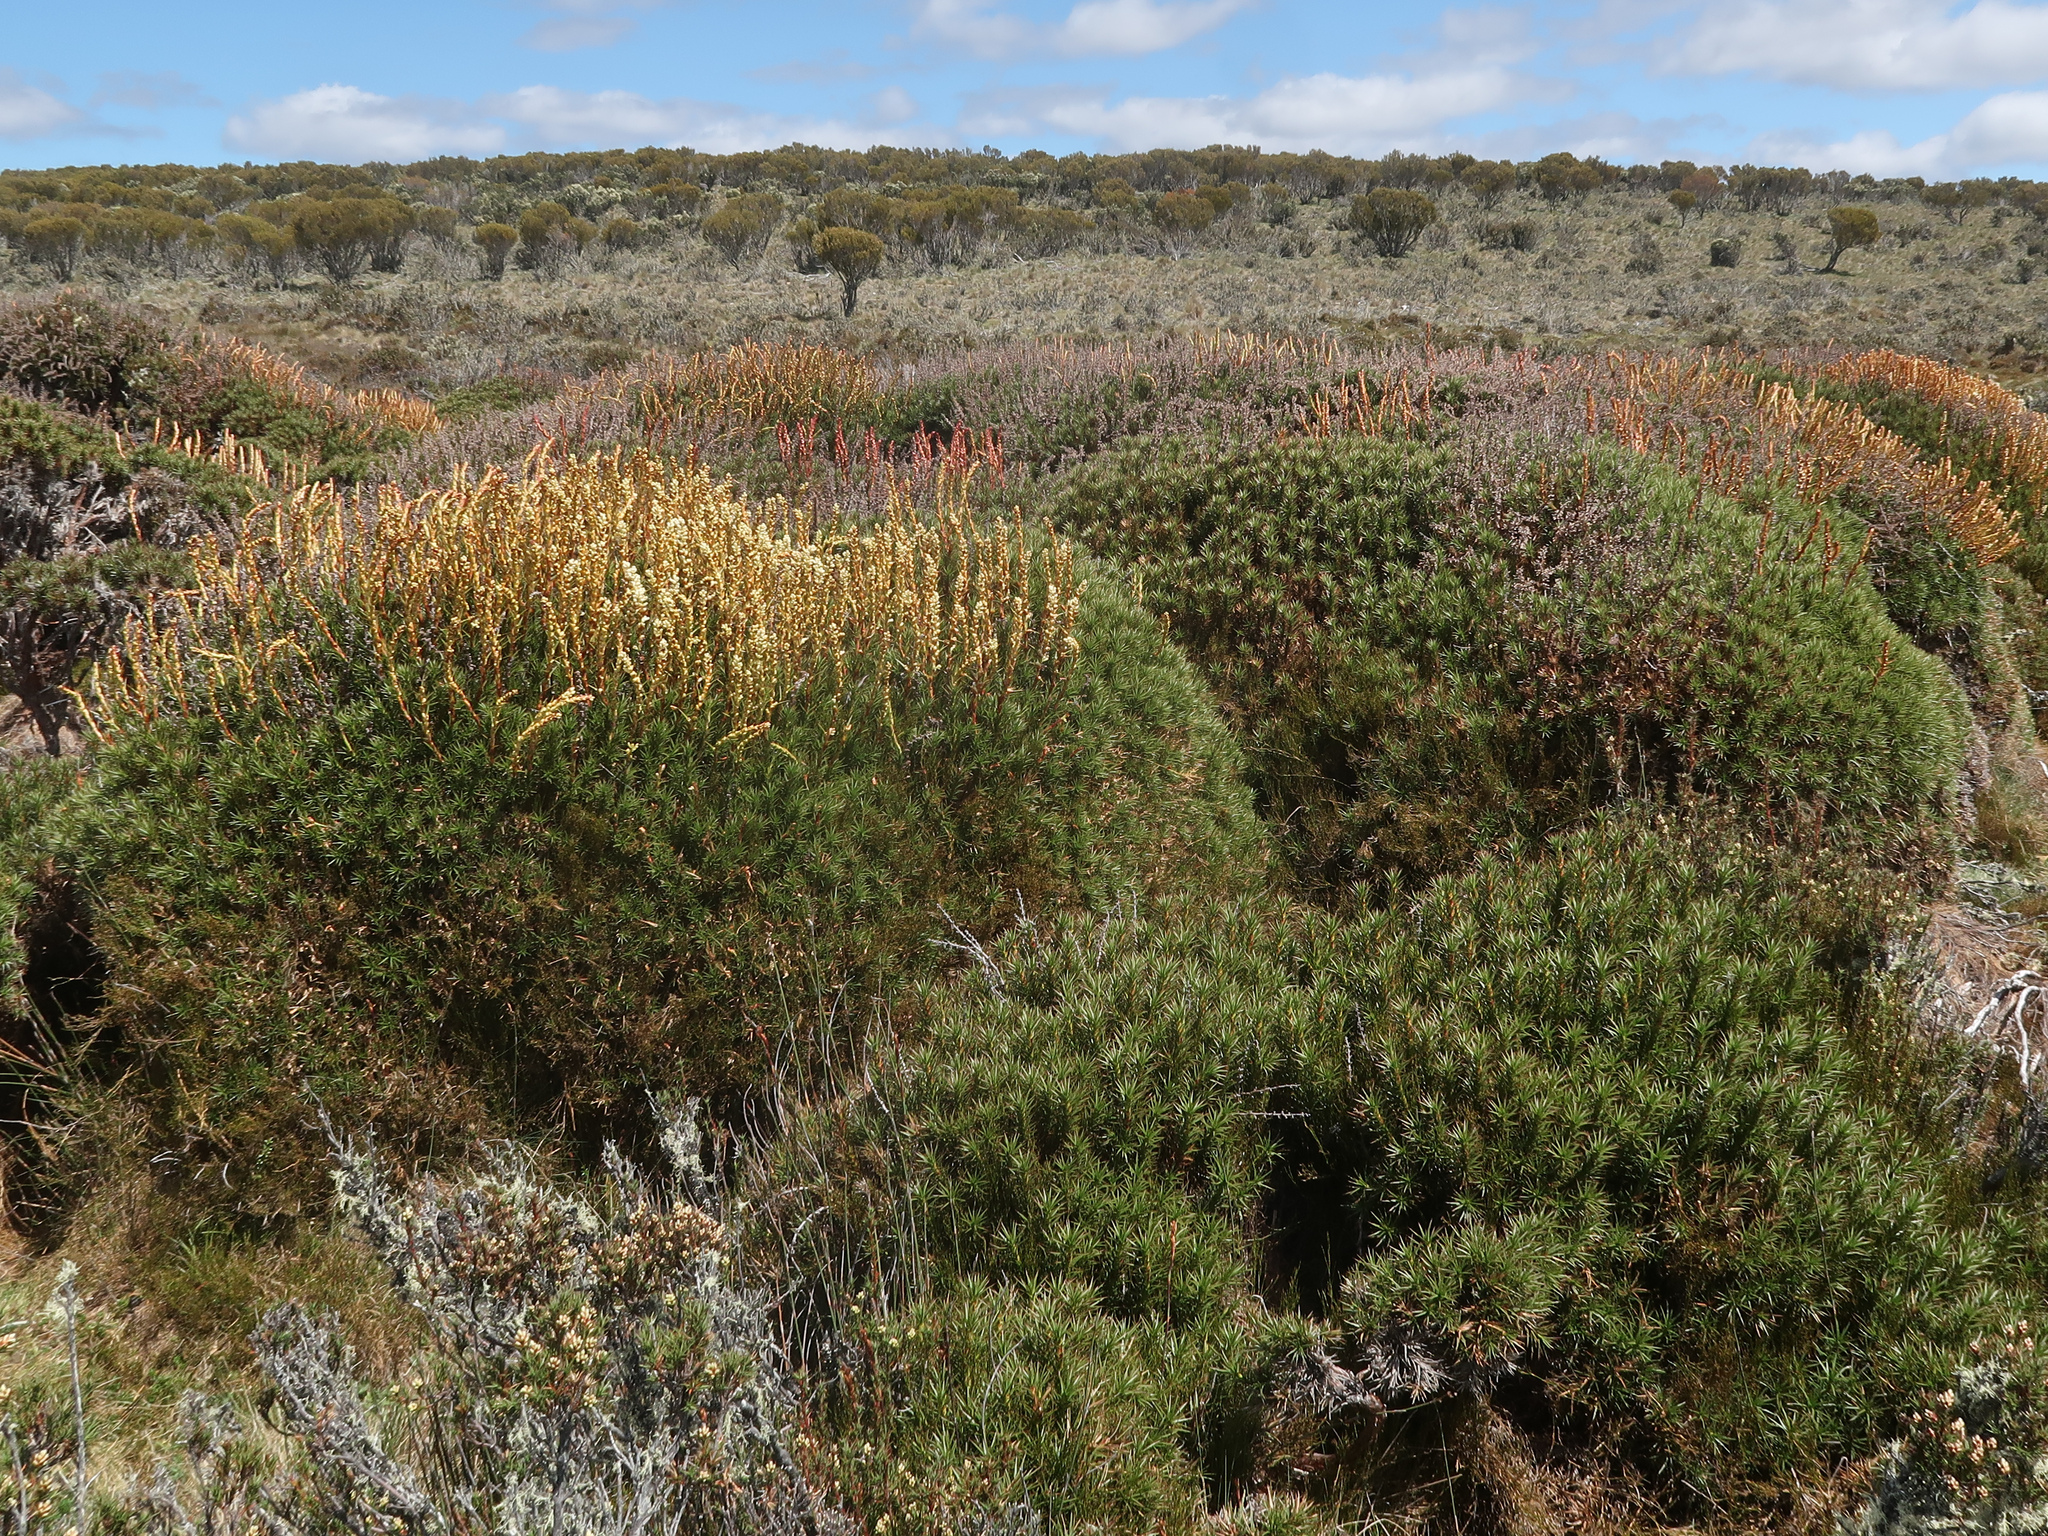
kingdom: Plantae
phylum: Tracheophyta
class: Magnoliopsida
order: Ericales
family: Ericaceae
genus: Dracophyllum
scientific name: Dracophyllum persistentifolium
